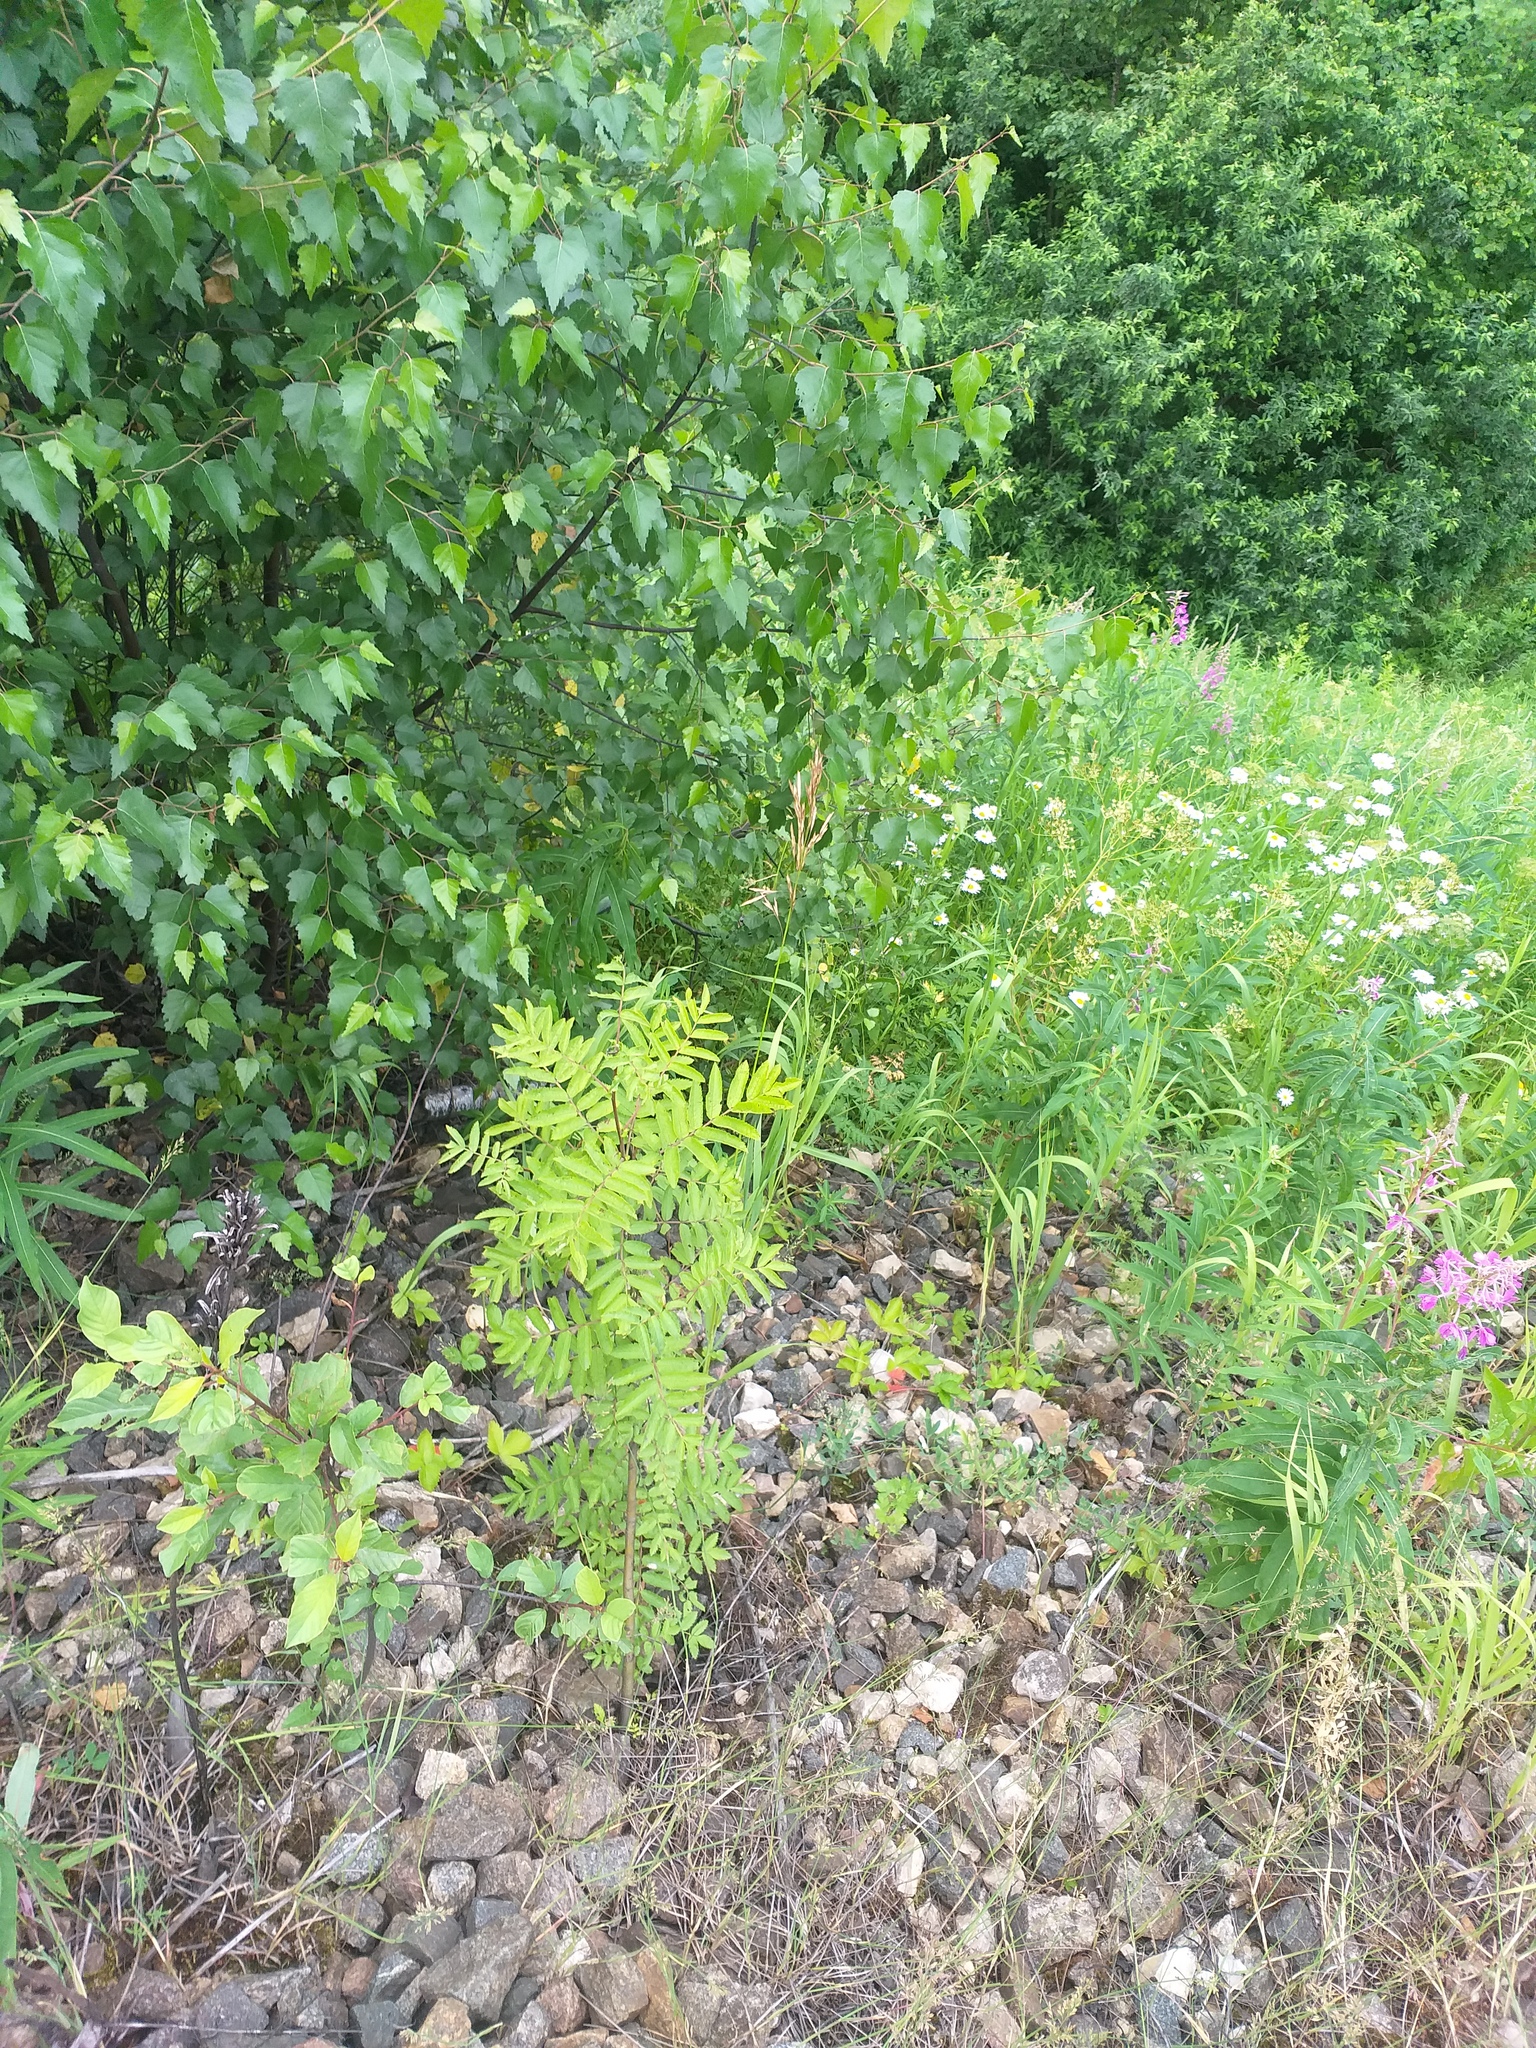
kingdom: Plantae
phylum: Tracheophyta
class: Magnoliopsida
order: Rosales
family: Rosaceae
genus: Sorbus
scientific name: Sorbus aucuparia
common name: Rowan
